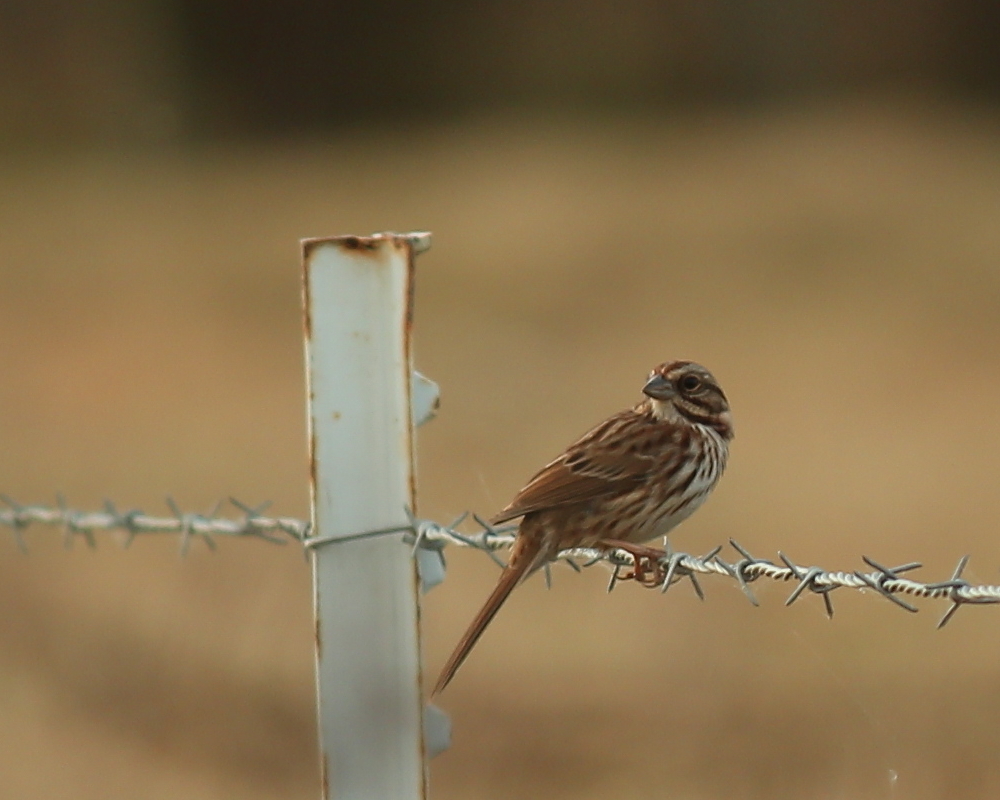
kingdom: Animalia
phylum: Chordata
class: Aves
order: Passeriformes
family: Passerellidae
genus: Melospiza
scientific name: Melospiza melodia
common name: Song sparrow
